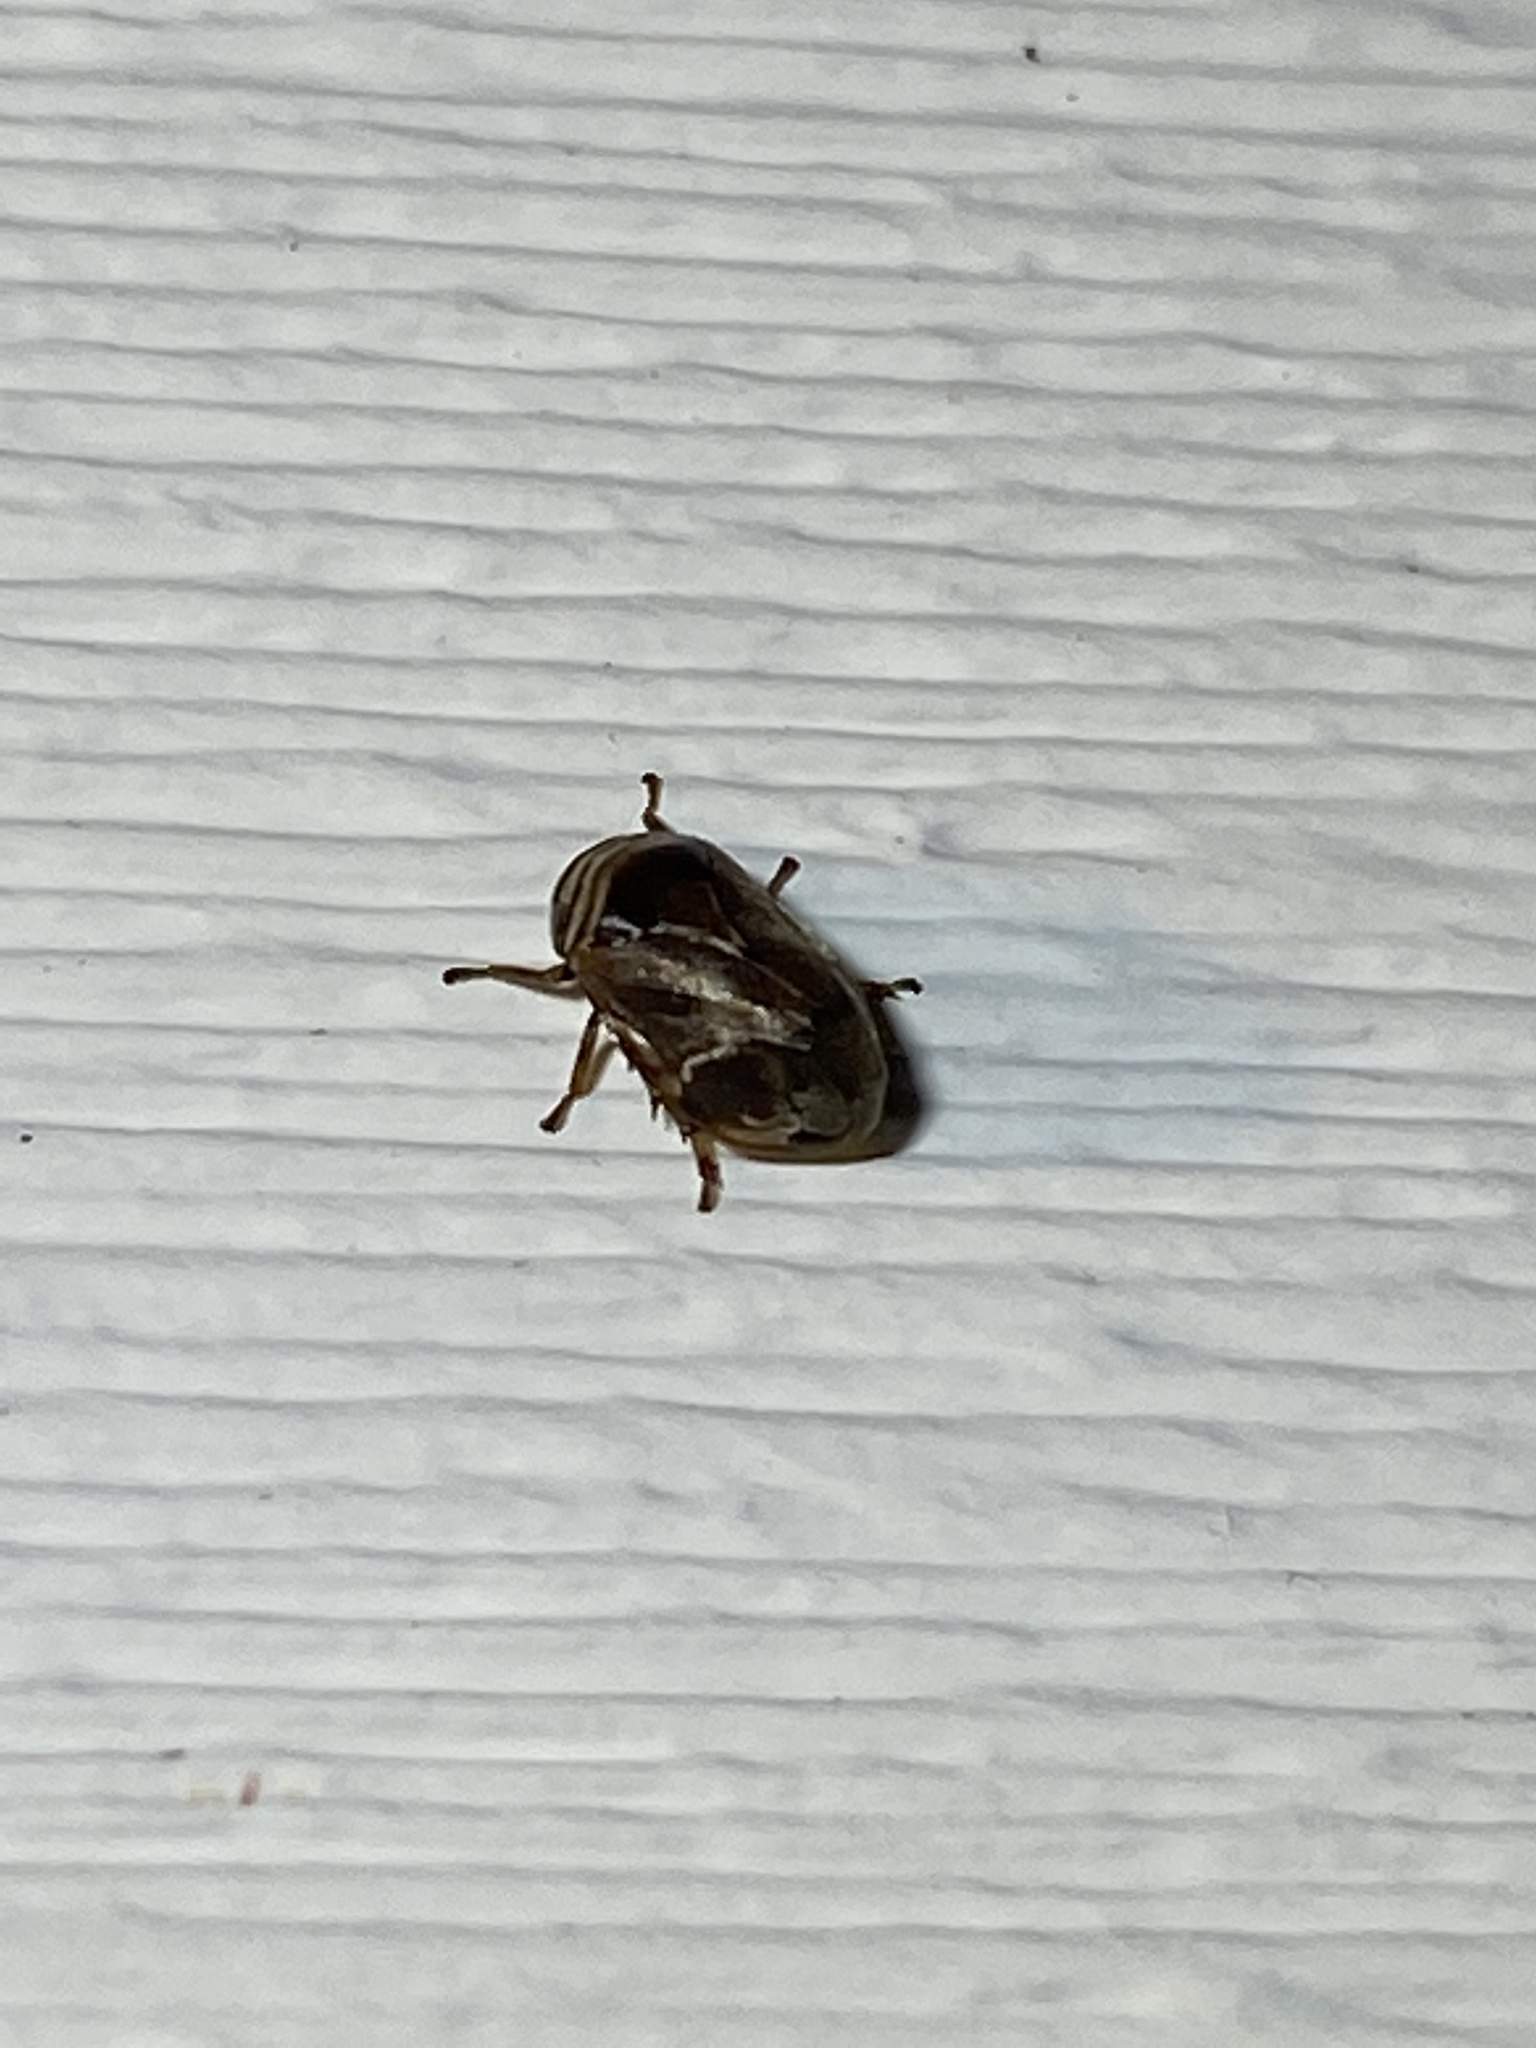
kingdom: Animalia
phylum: Arthropoda
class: Insecta
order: Hemiptera
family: Clastopteridae
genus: Clastoptera
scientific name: Clastoptera obtusa
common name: Alder spittlebug
